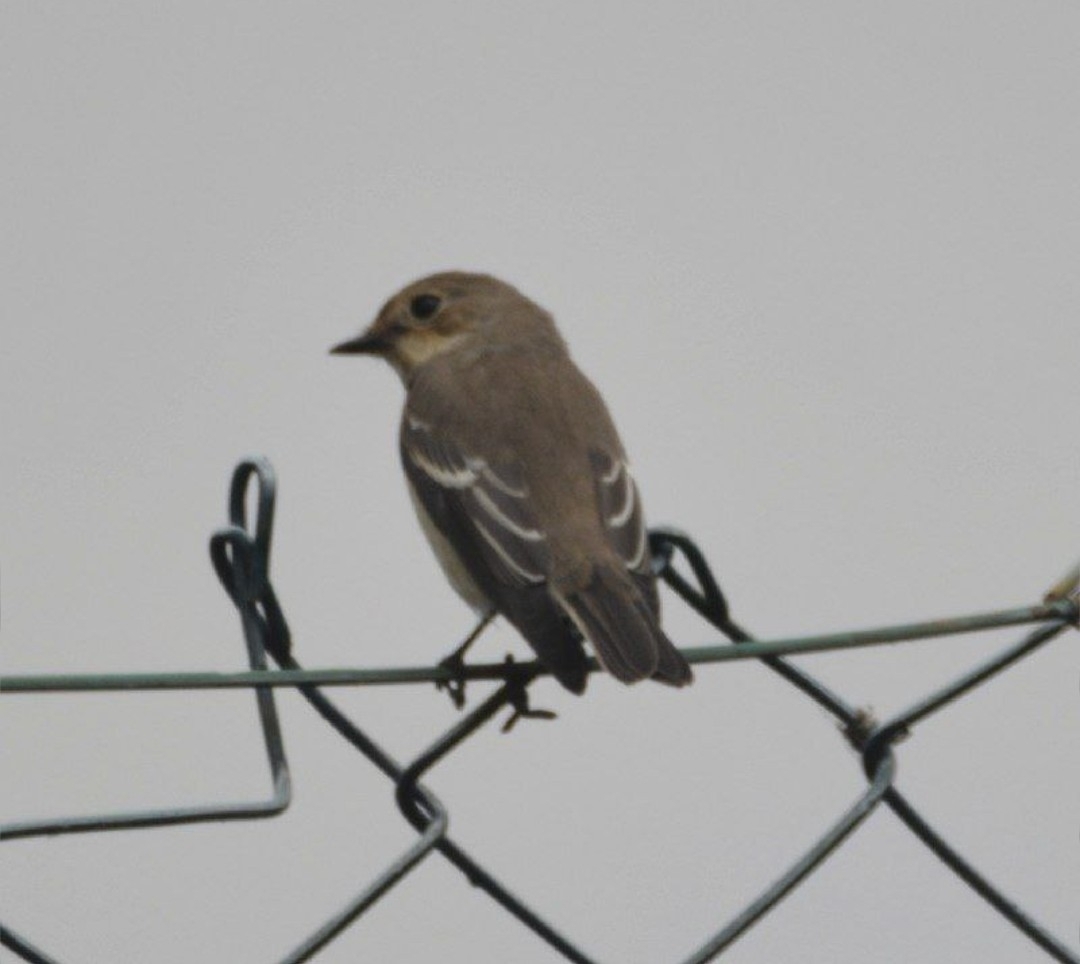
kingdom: Animalia
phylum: Chordata
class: Aves
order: Passeriformes
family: Muscicapidae
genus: Ficedula
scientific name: Ficedula hypoleuca
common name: European pied flycatcher
